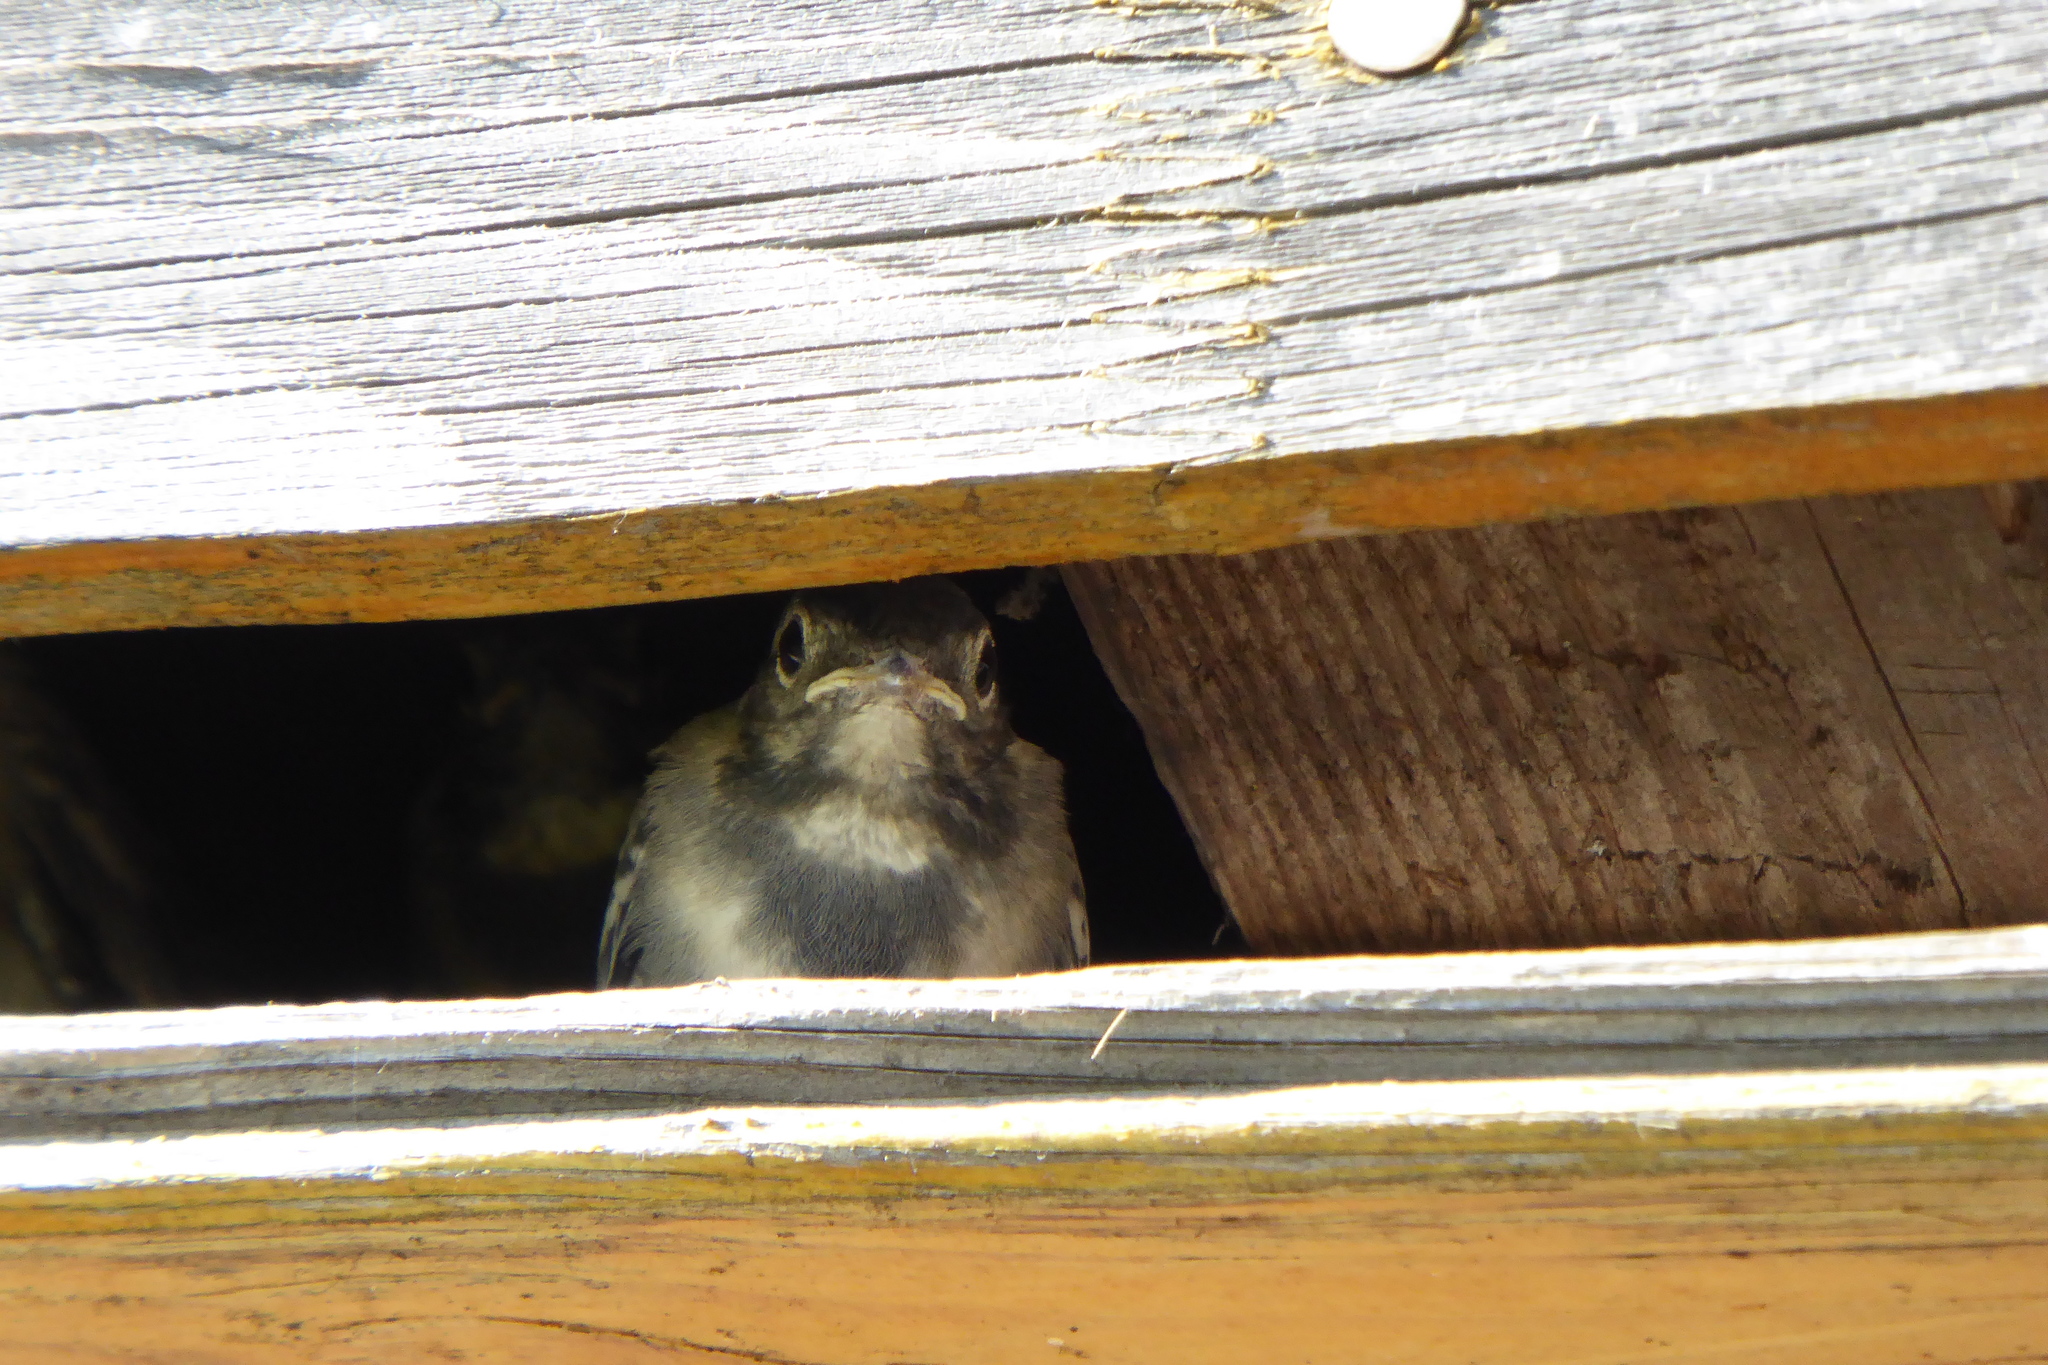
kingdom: Animalia
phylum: Chordata
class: Aves
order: Passeriformes
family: Motacillidae
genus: Motacilla
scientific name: Motacilla alba
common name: White wagtail
